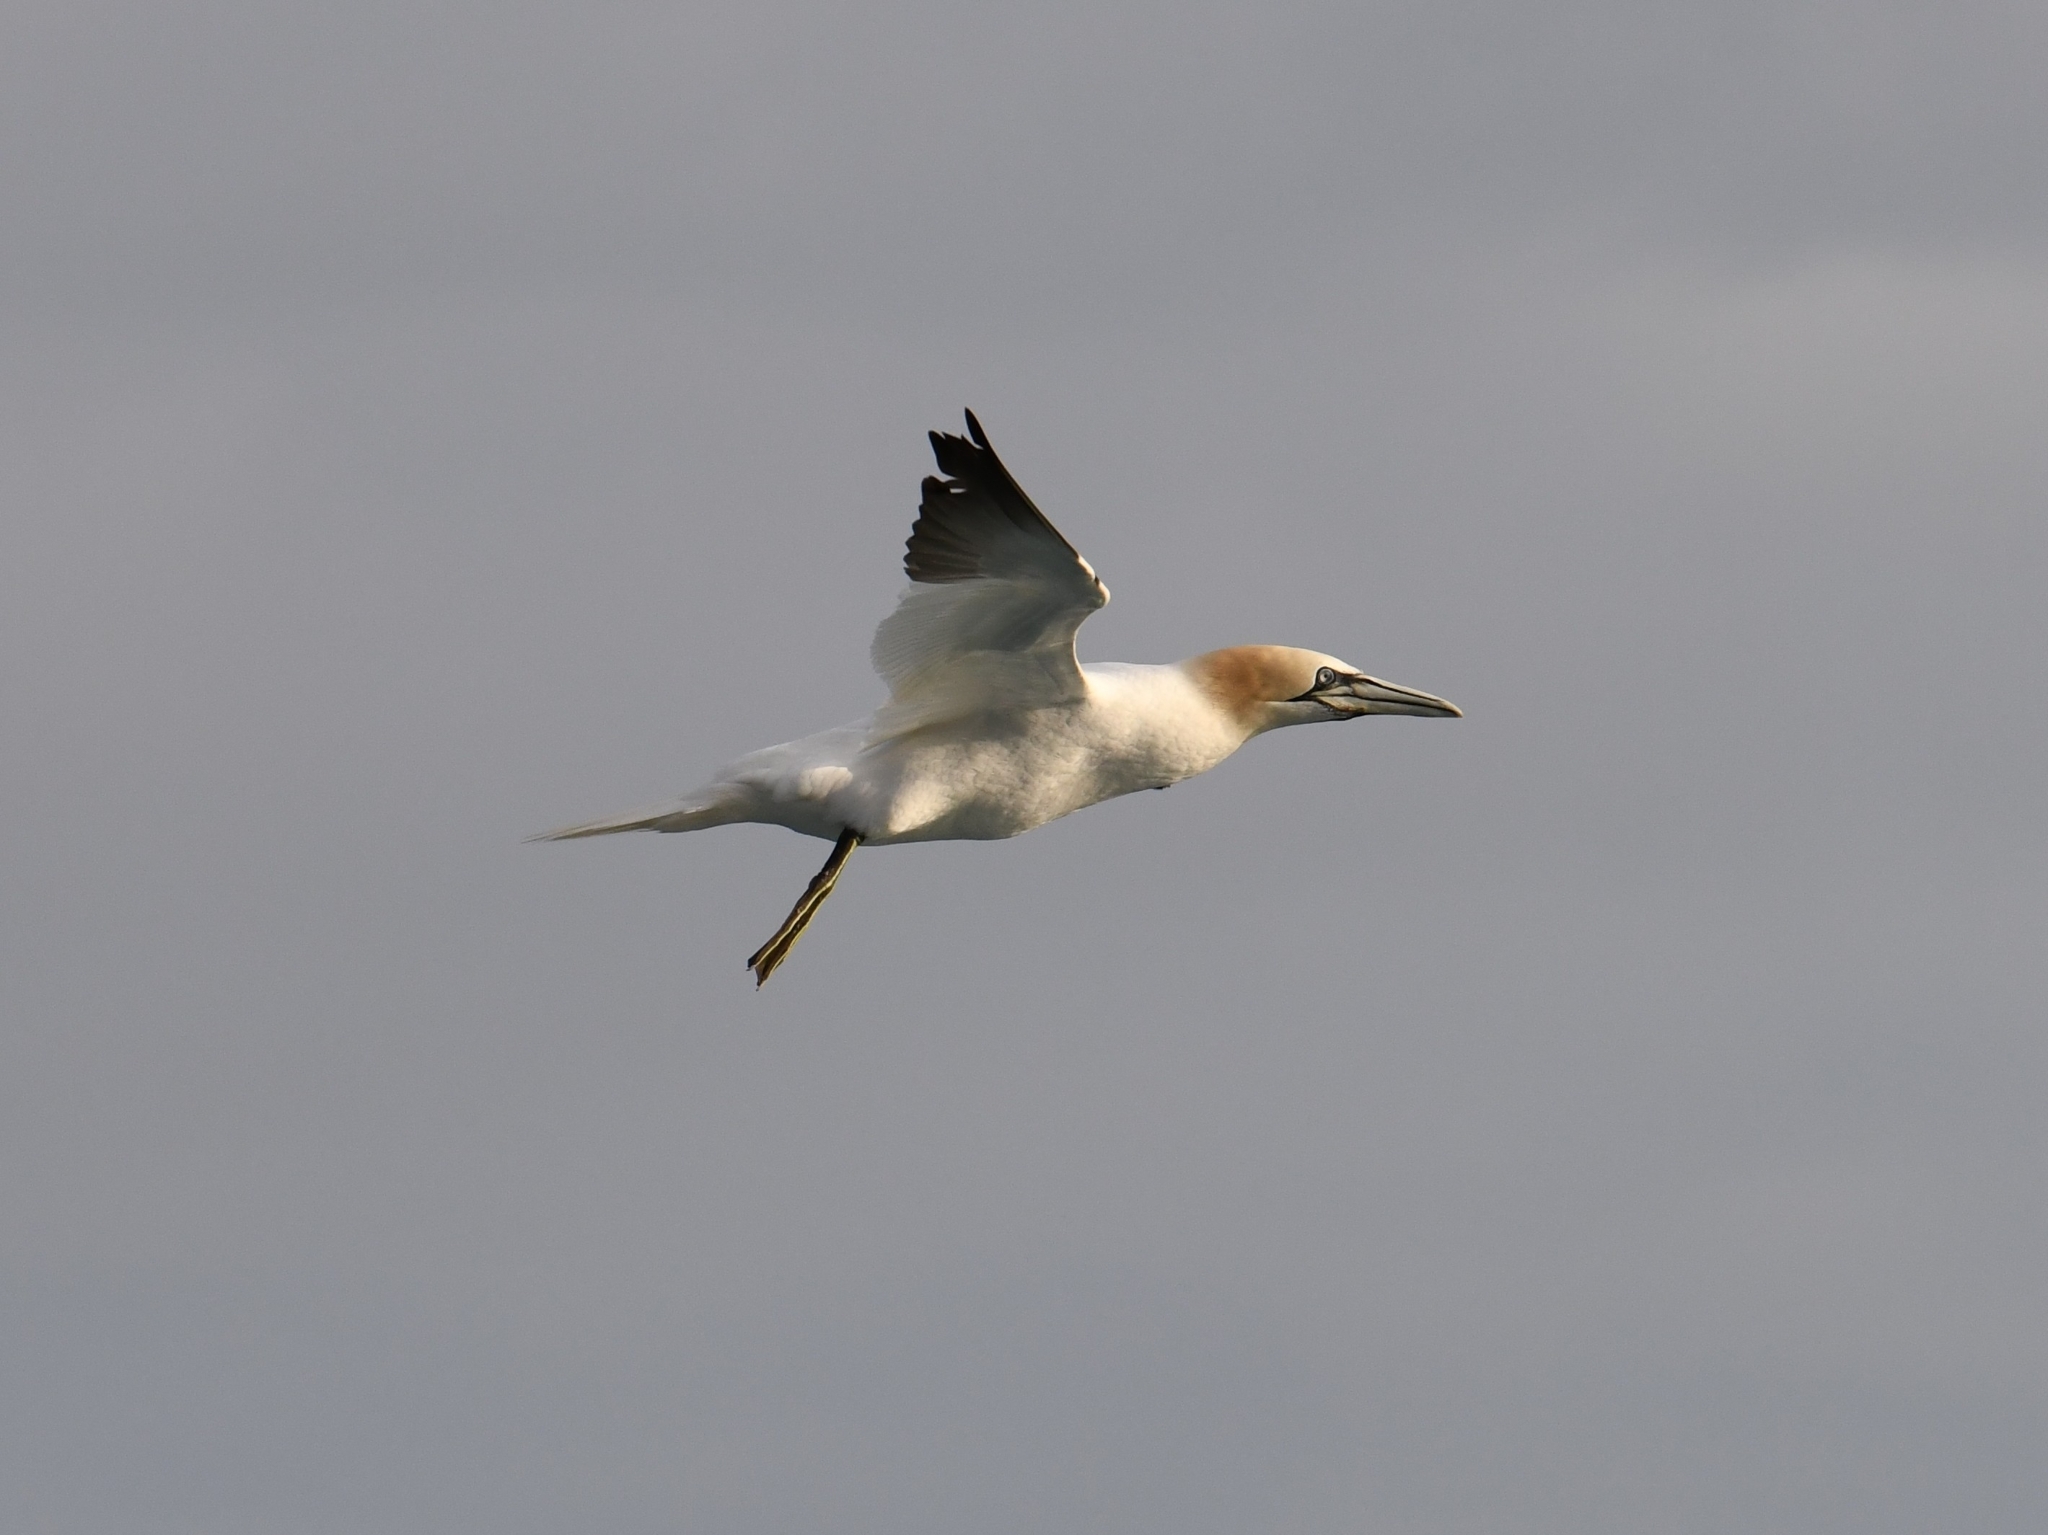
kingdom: Animalia
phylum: Chordata
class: Aves
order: Suliformes
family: Sulidae
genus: Morus
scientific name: Morus bassanus
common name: Northern gannet
